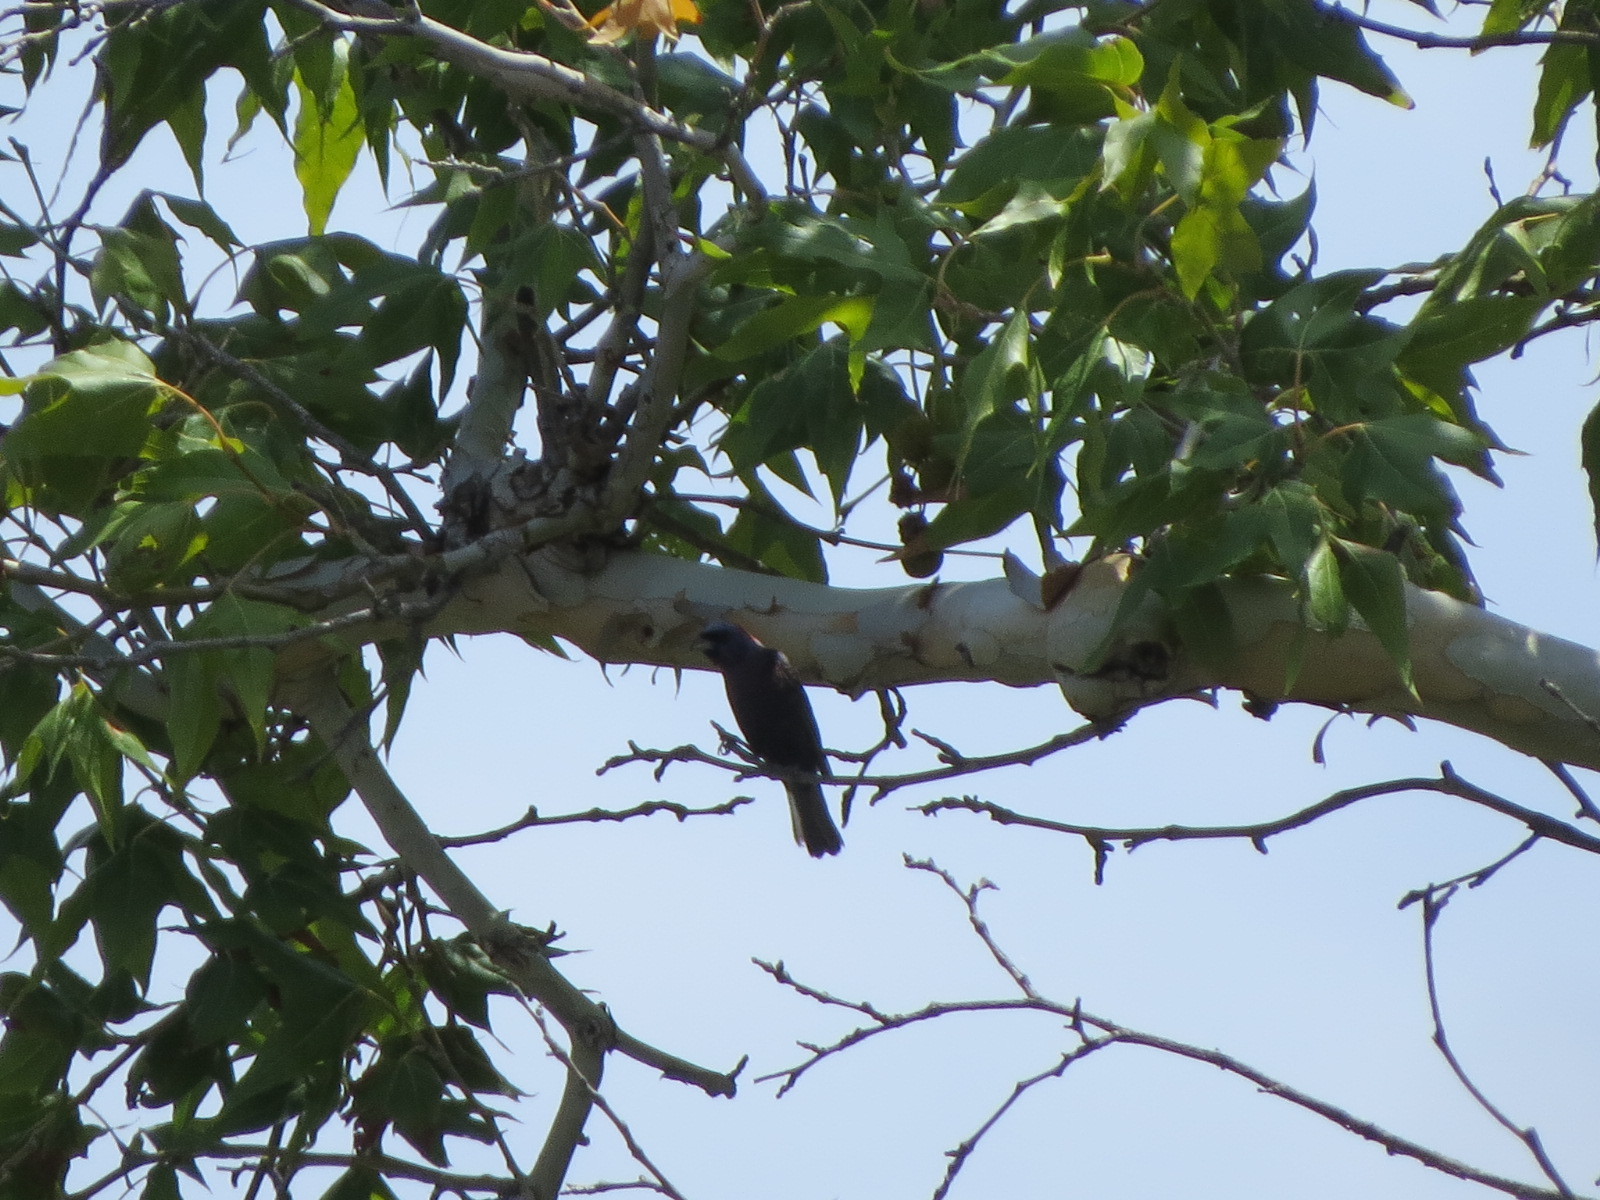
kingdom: Animalia
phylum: Chordata
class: Aves
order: Passeriformes
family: Cardinalidae
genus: Passerina
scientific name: Passerina versicolor
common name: Varied bunting
